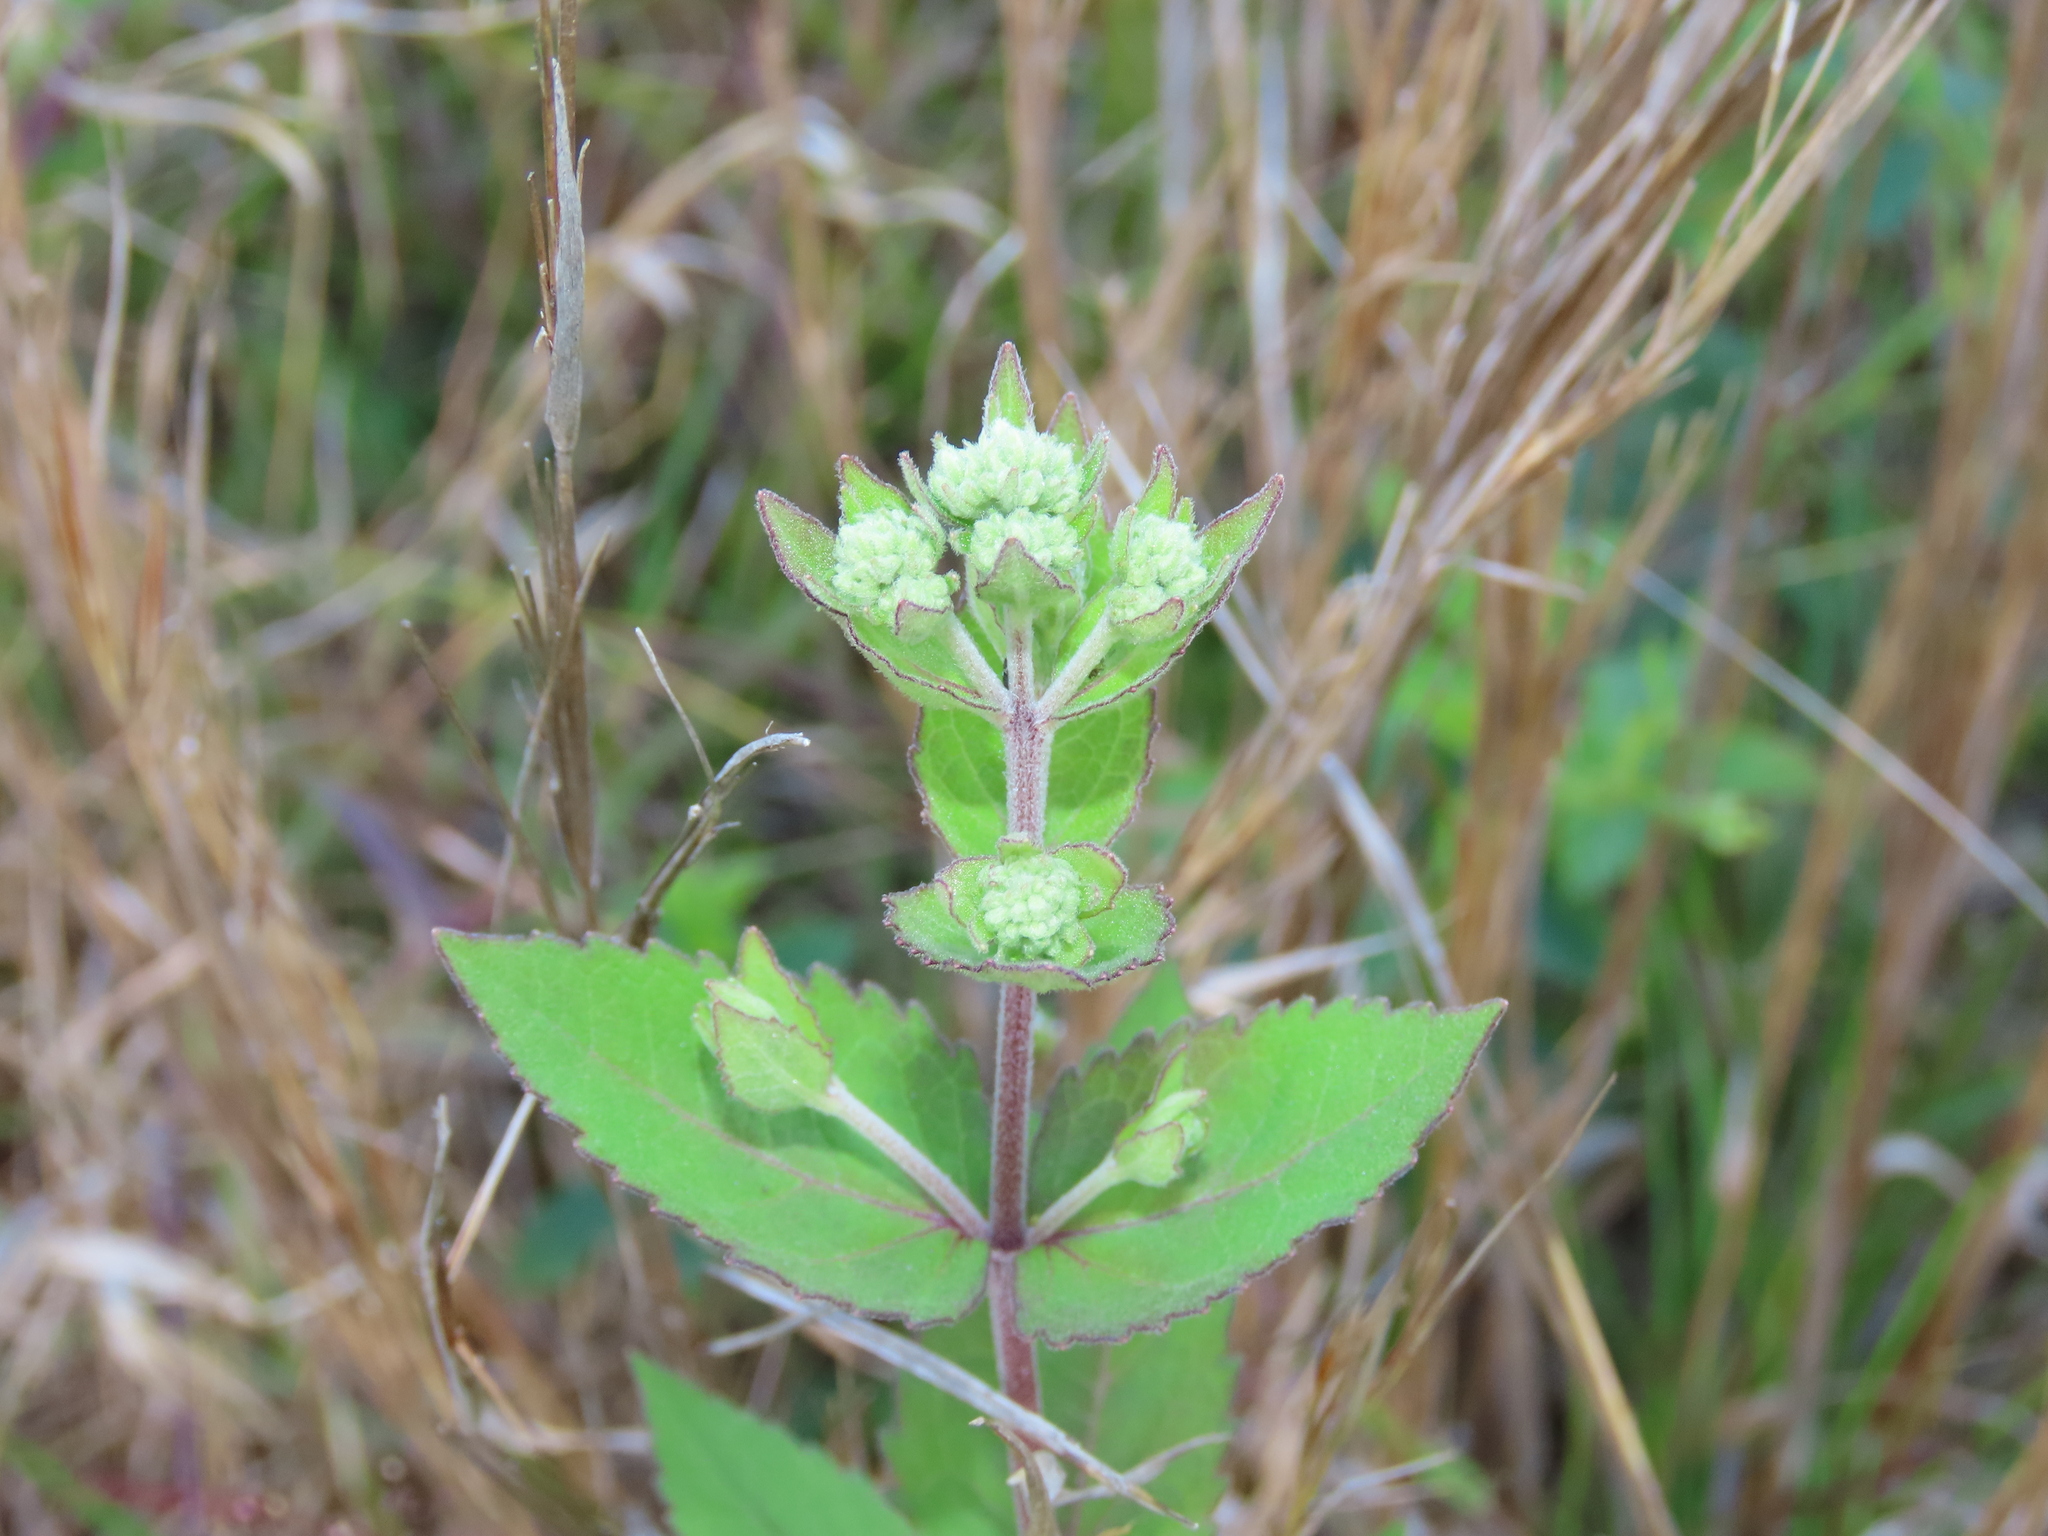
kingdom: Plantae
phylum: Tracheophyta
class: Magnoliopsida
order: Asterales
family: Asteraceae
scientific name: Asteraceae
